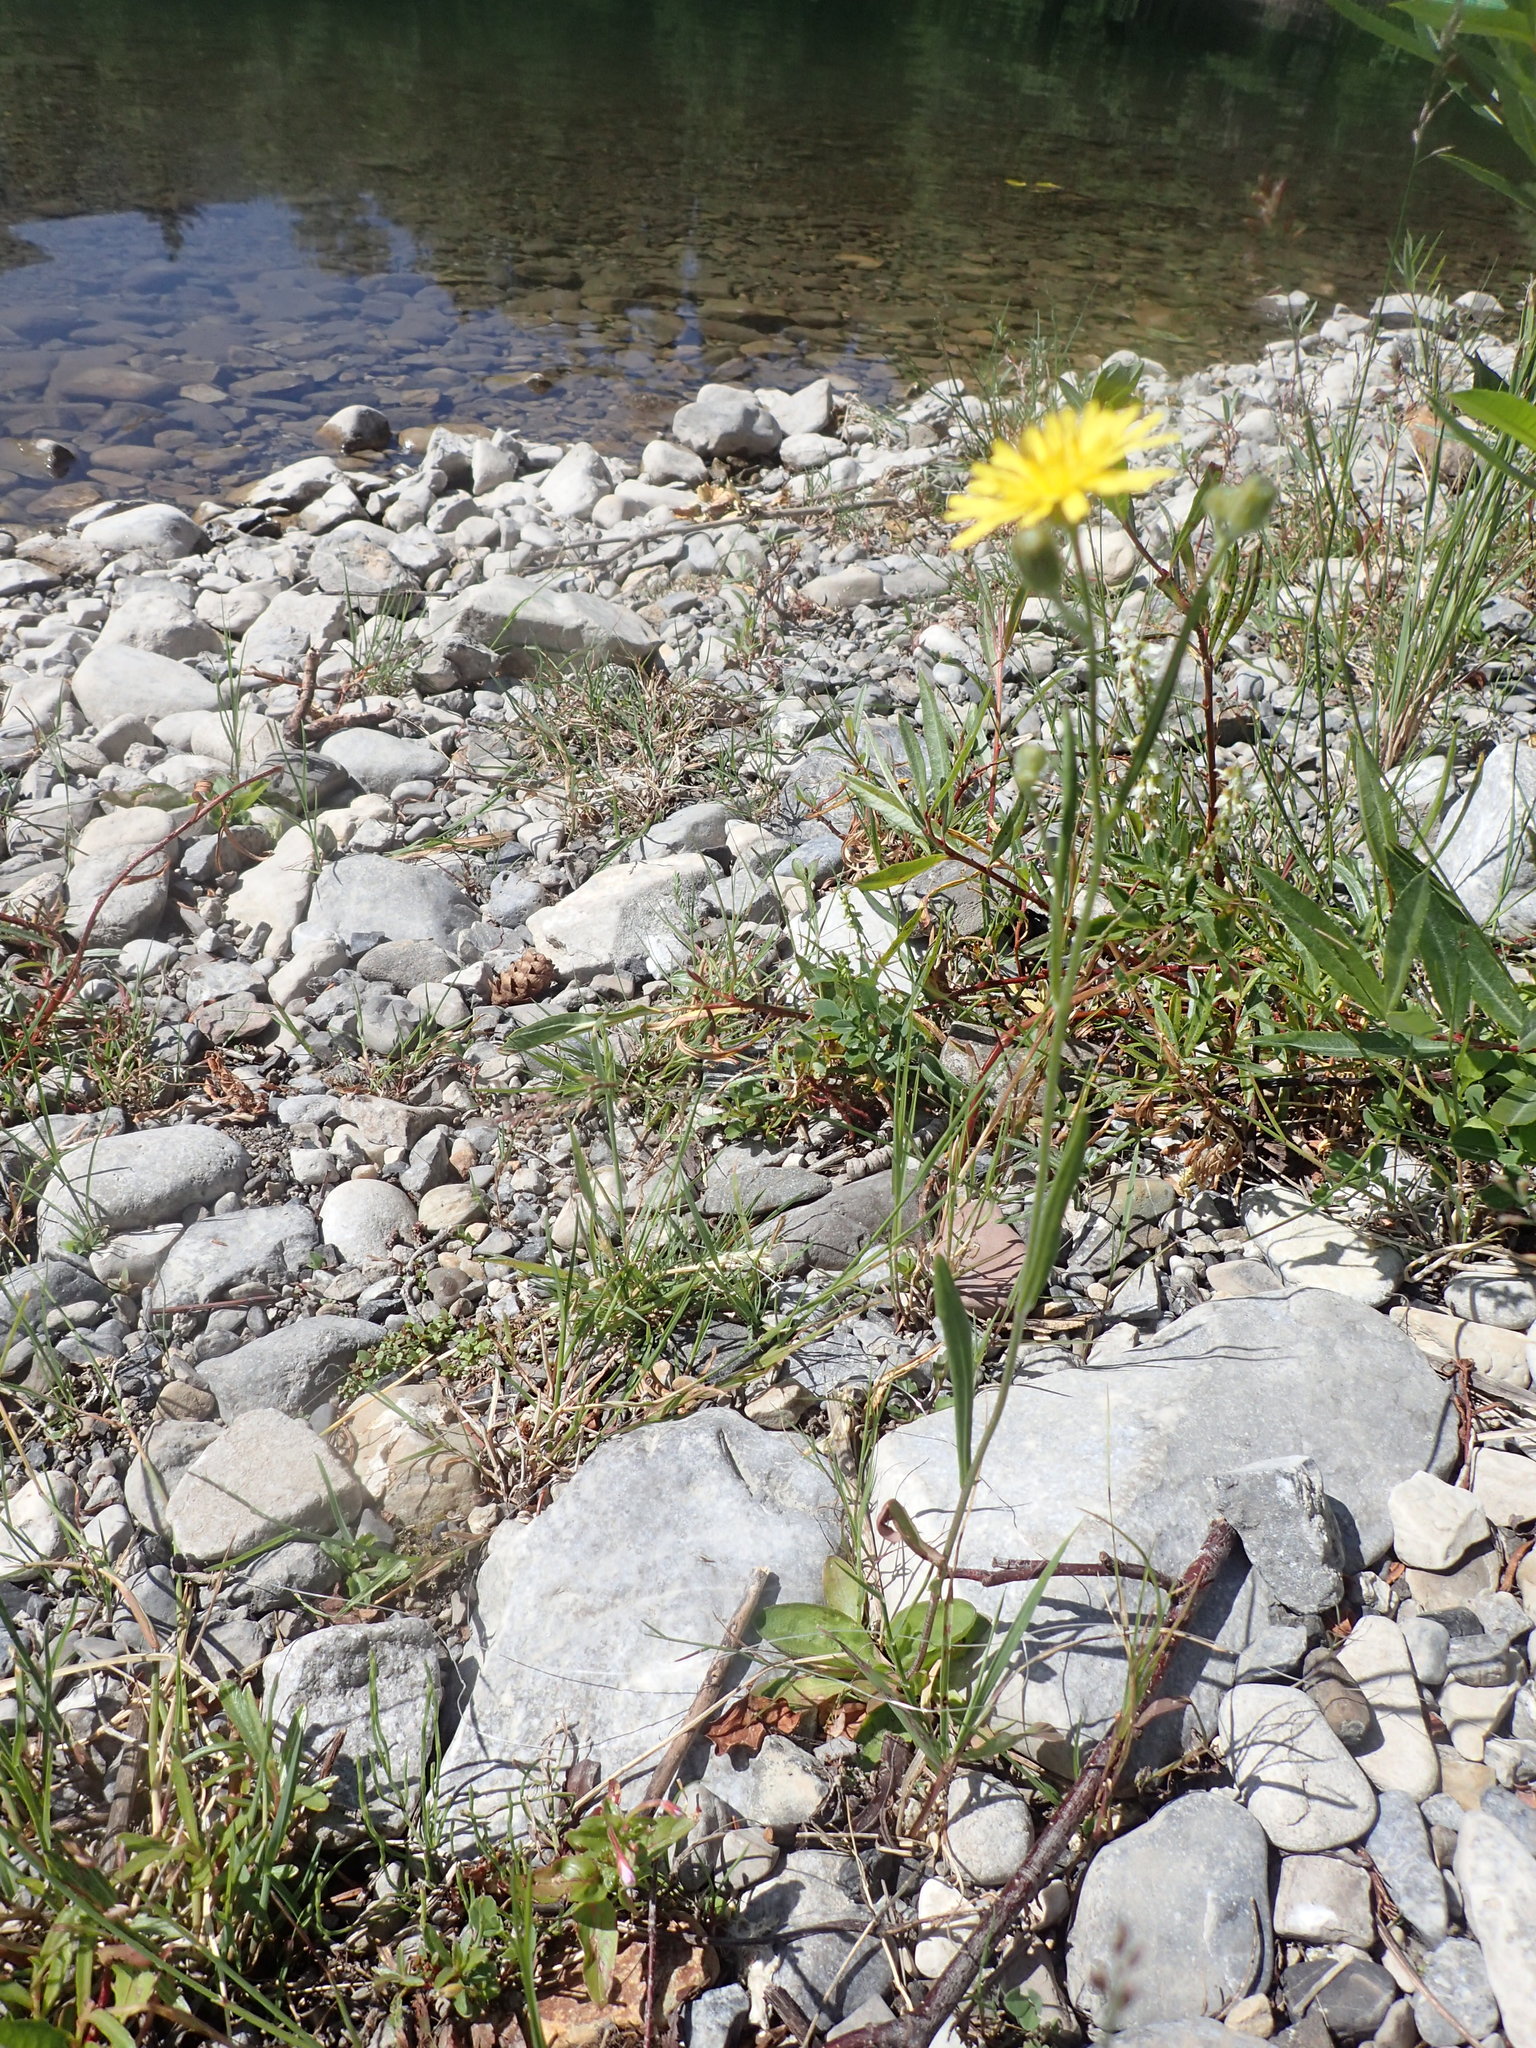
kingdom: Plantae
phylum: Tracheophyta
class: Magnoliopsida
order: Asterales
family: Asteraceae
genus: Crepis
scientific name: Crepis tectorum
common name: Narrow-leaved hawk's-beard
